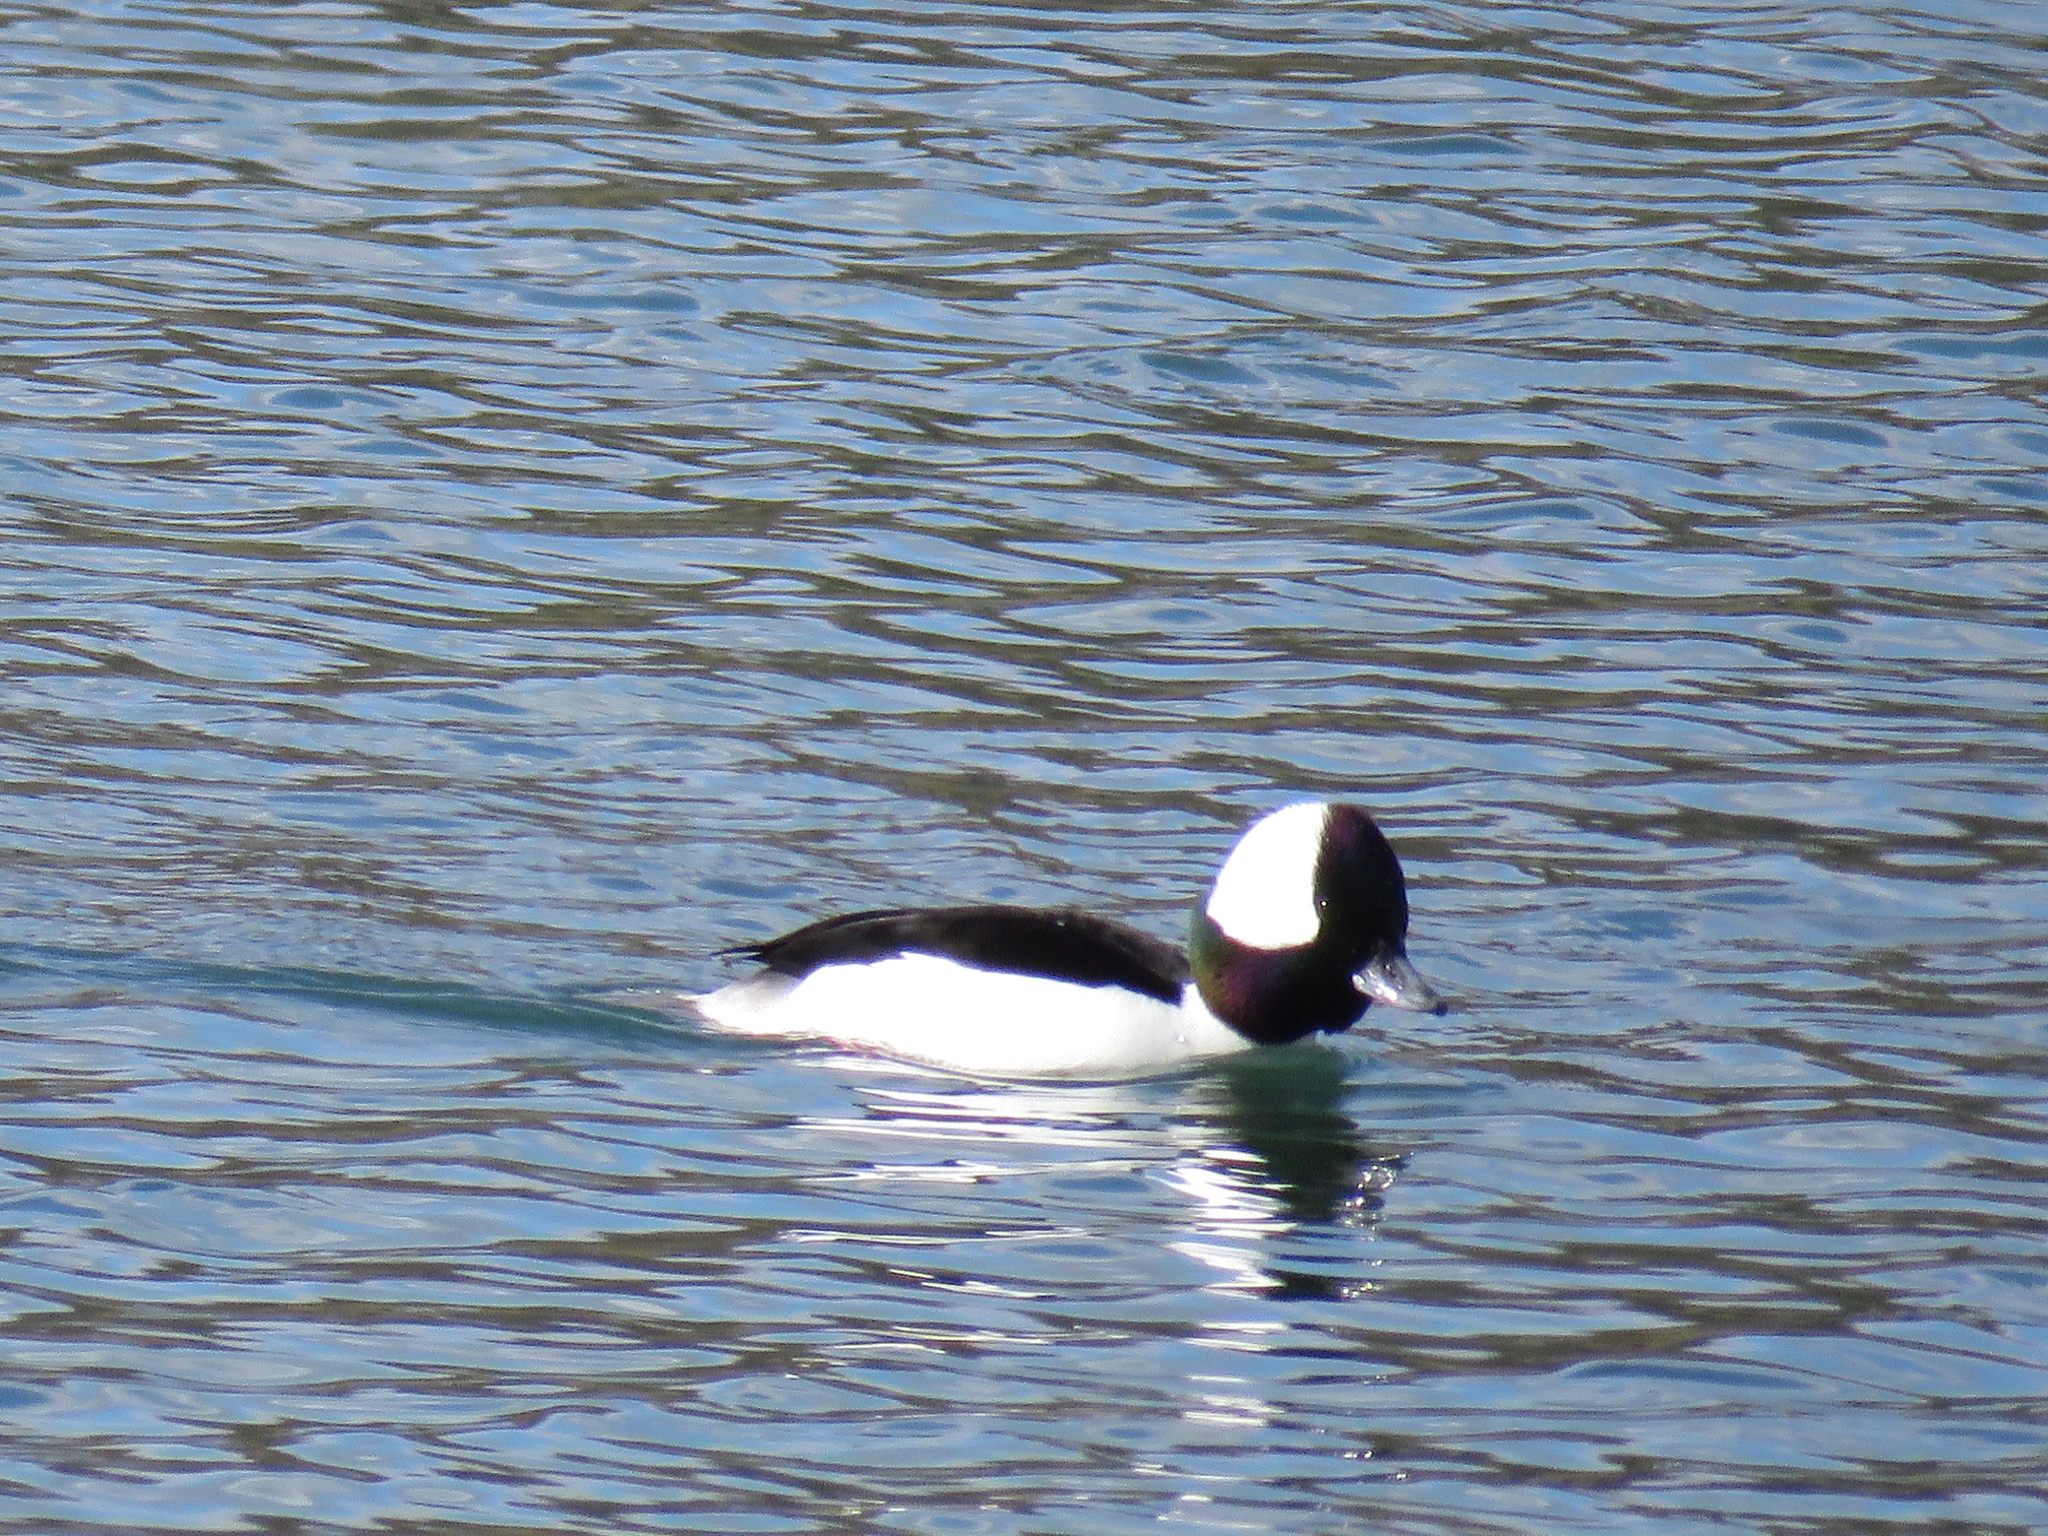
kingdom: Animalia
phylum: Chordata
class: Aves
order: Anseriformes
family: Anatidae
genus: Bucephala
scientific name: Bucephala albeola
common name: Bufflehead
